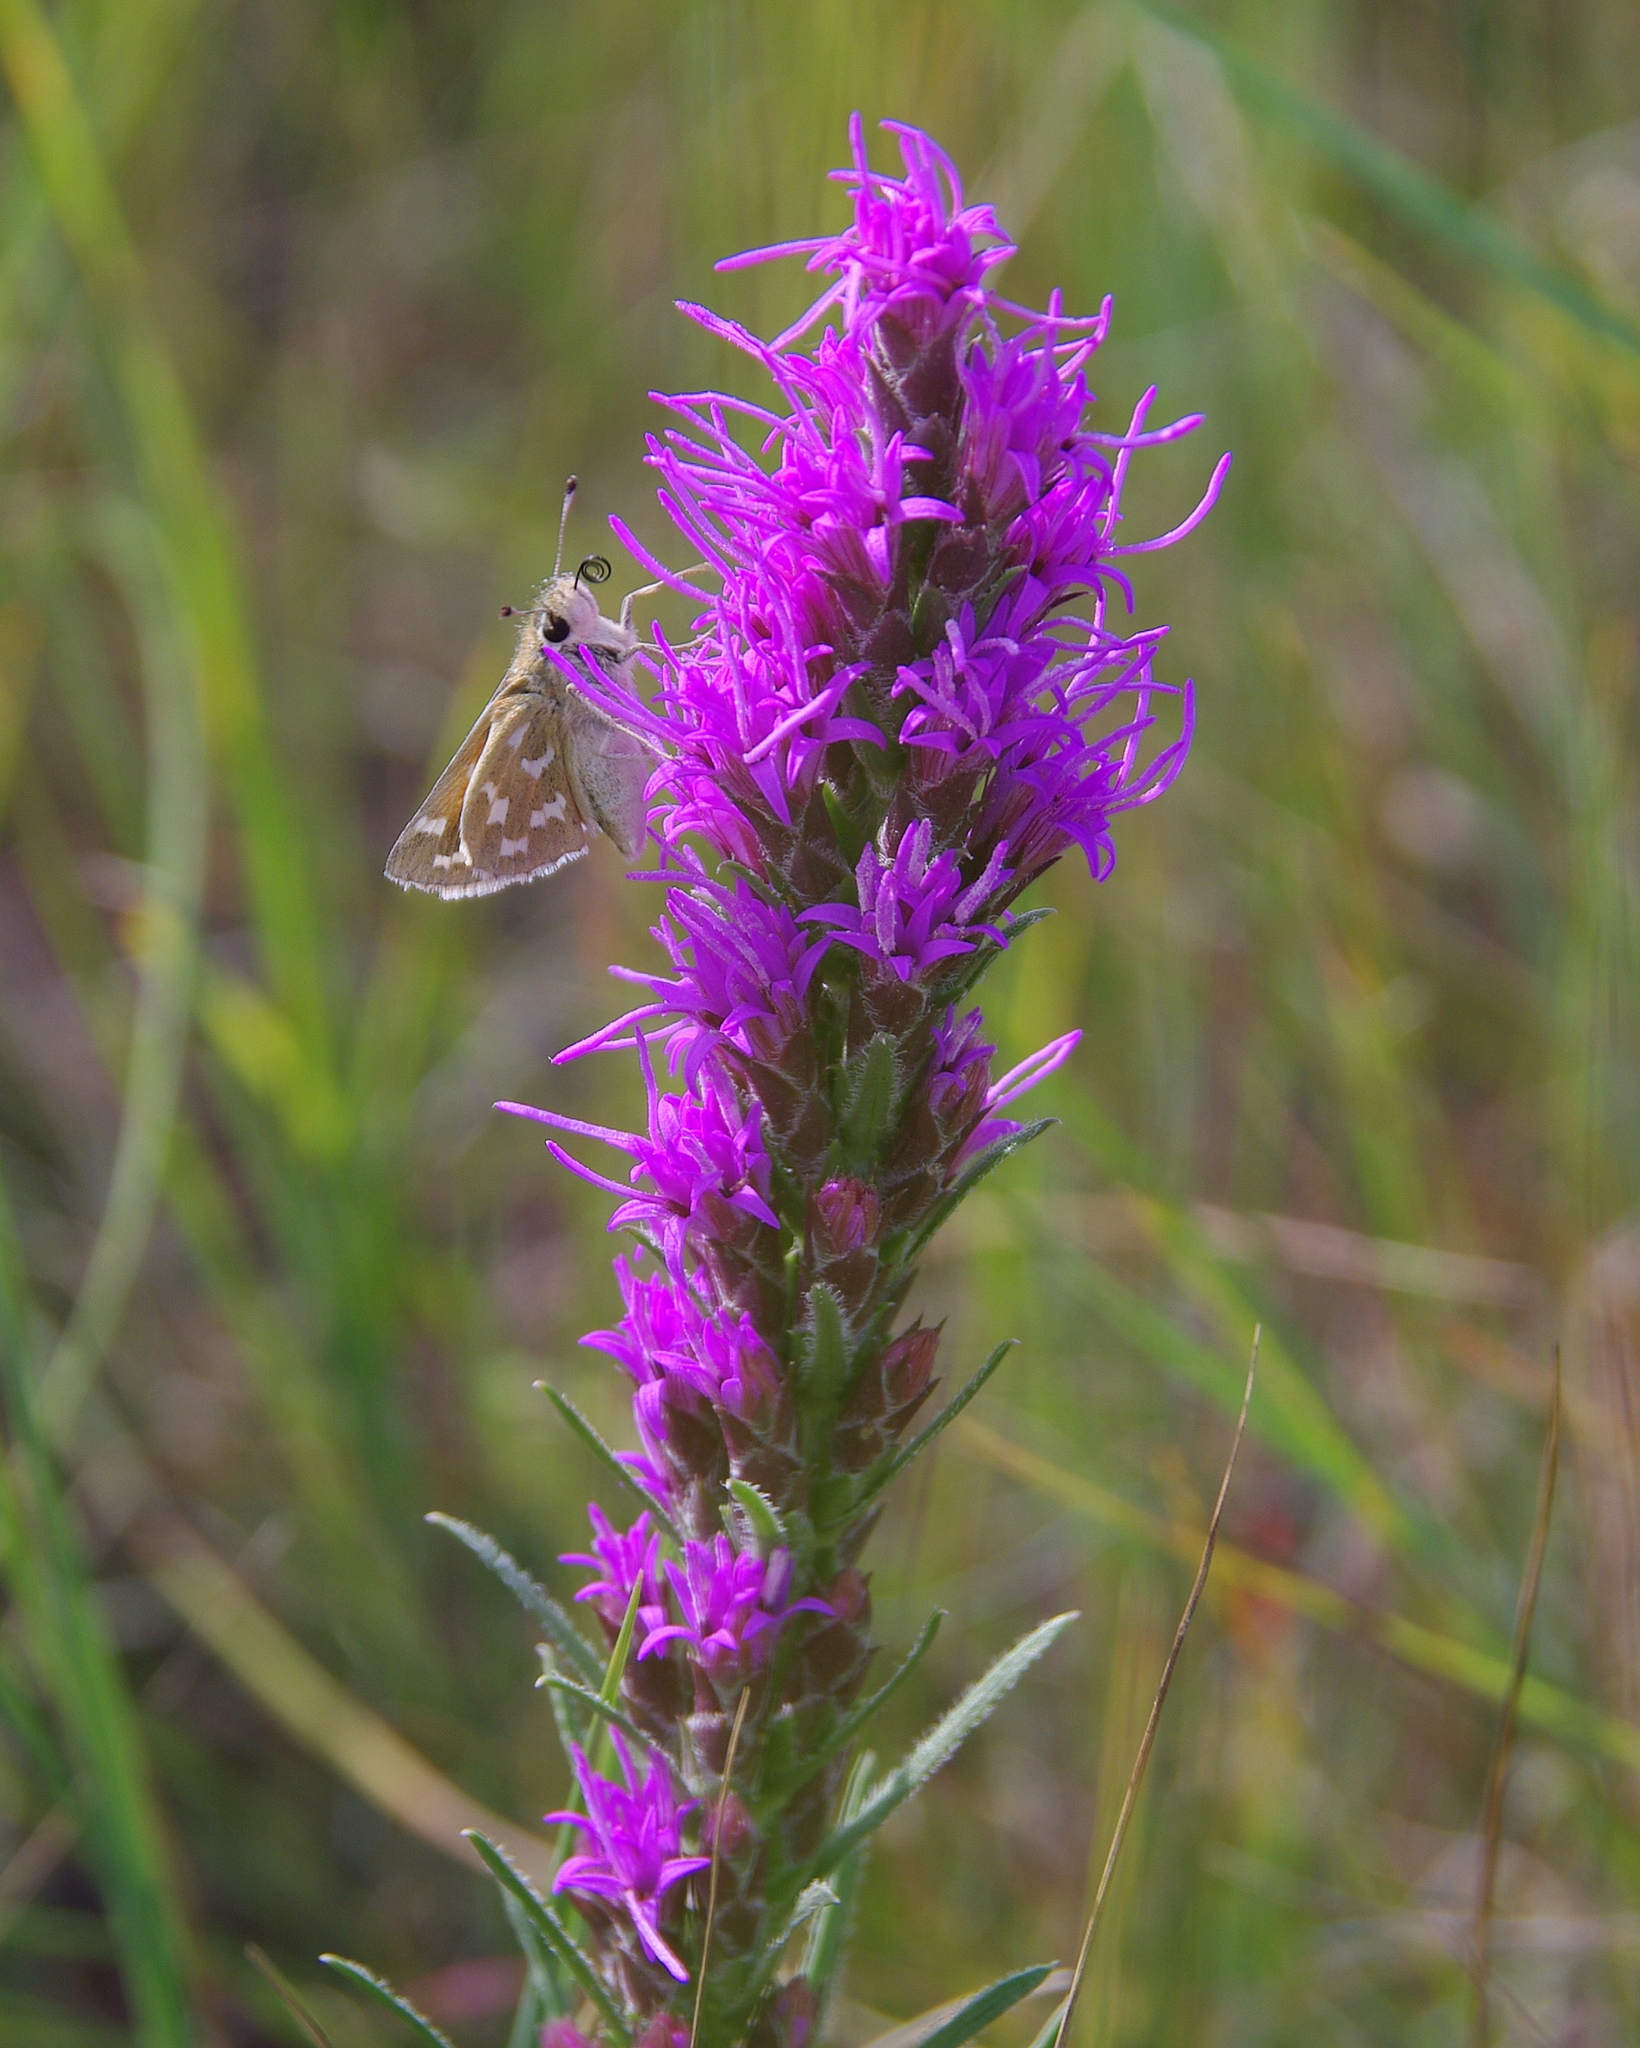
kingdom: Animalia
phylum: Arthropoda
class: Insecta
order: Lepidoptera
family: Hesperiidae
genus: Hesperia
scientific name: Hesperia comma
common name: Common branded skipper
